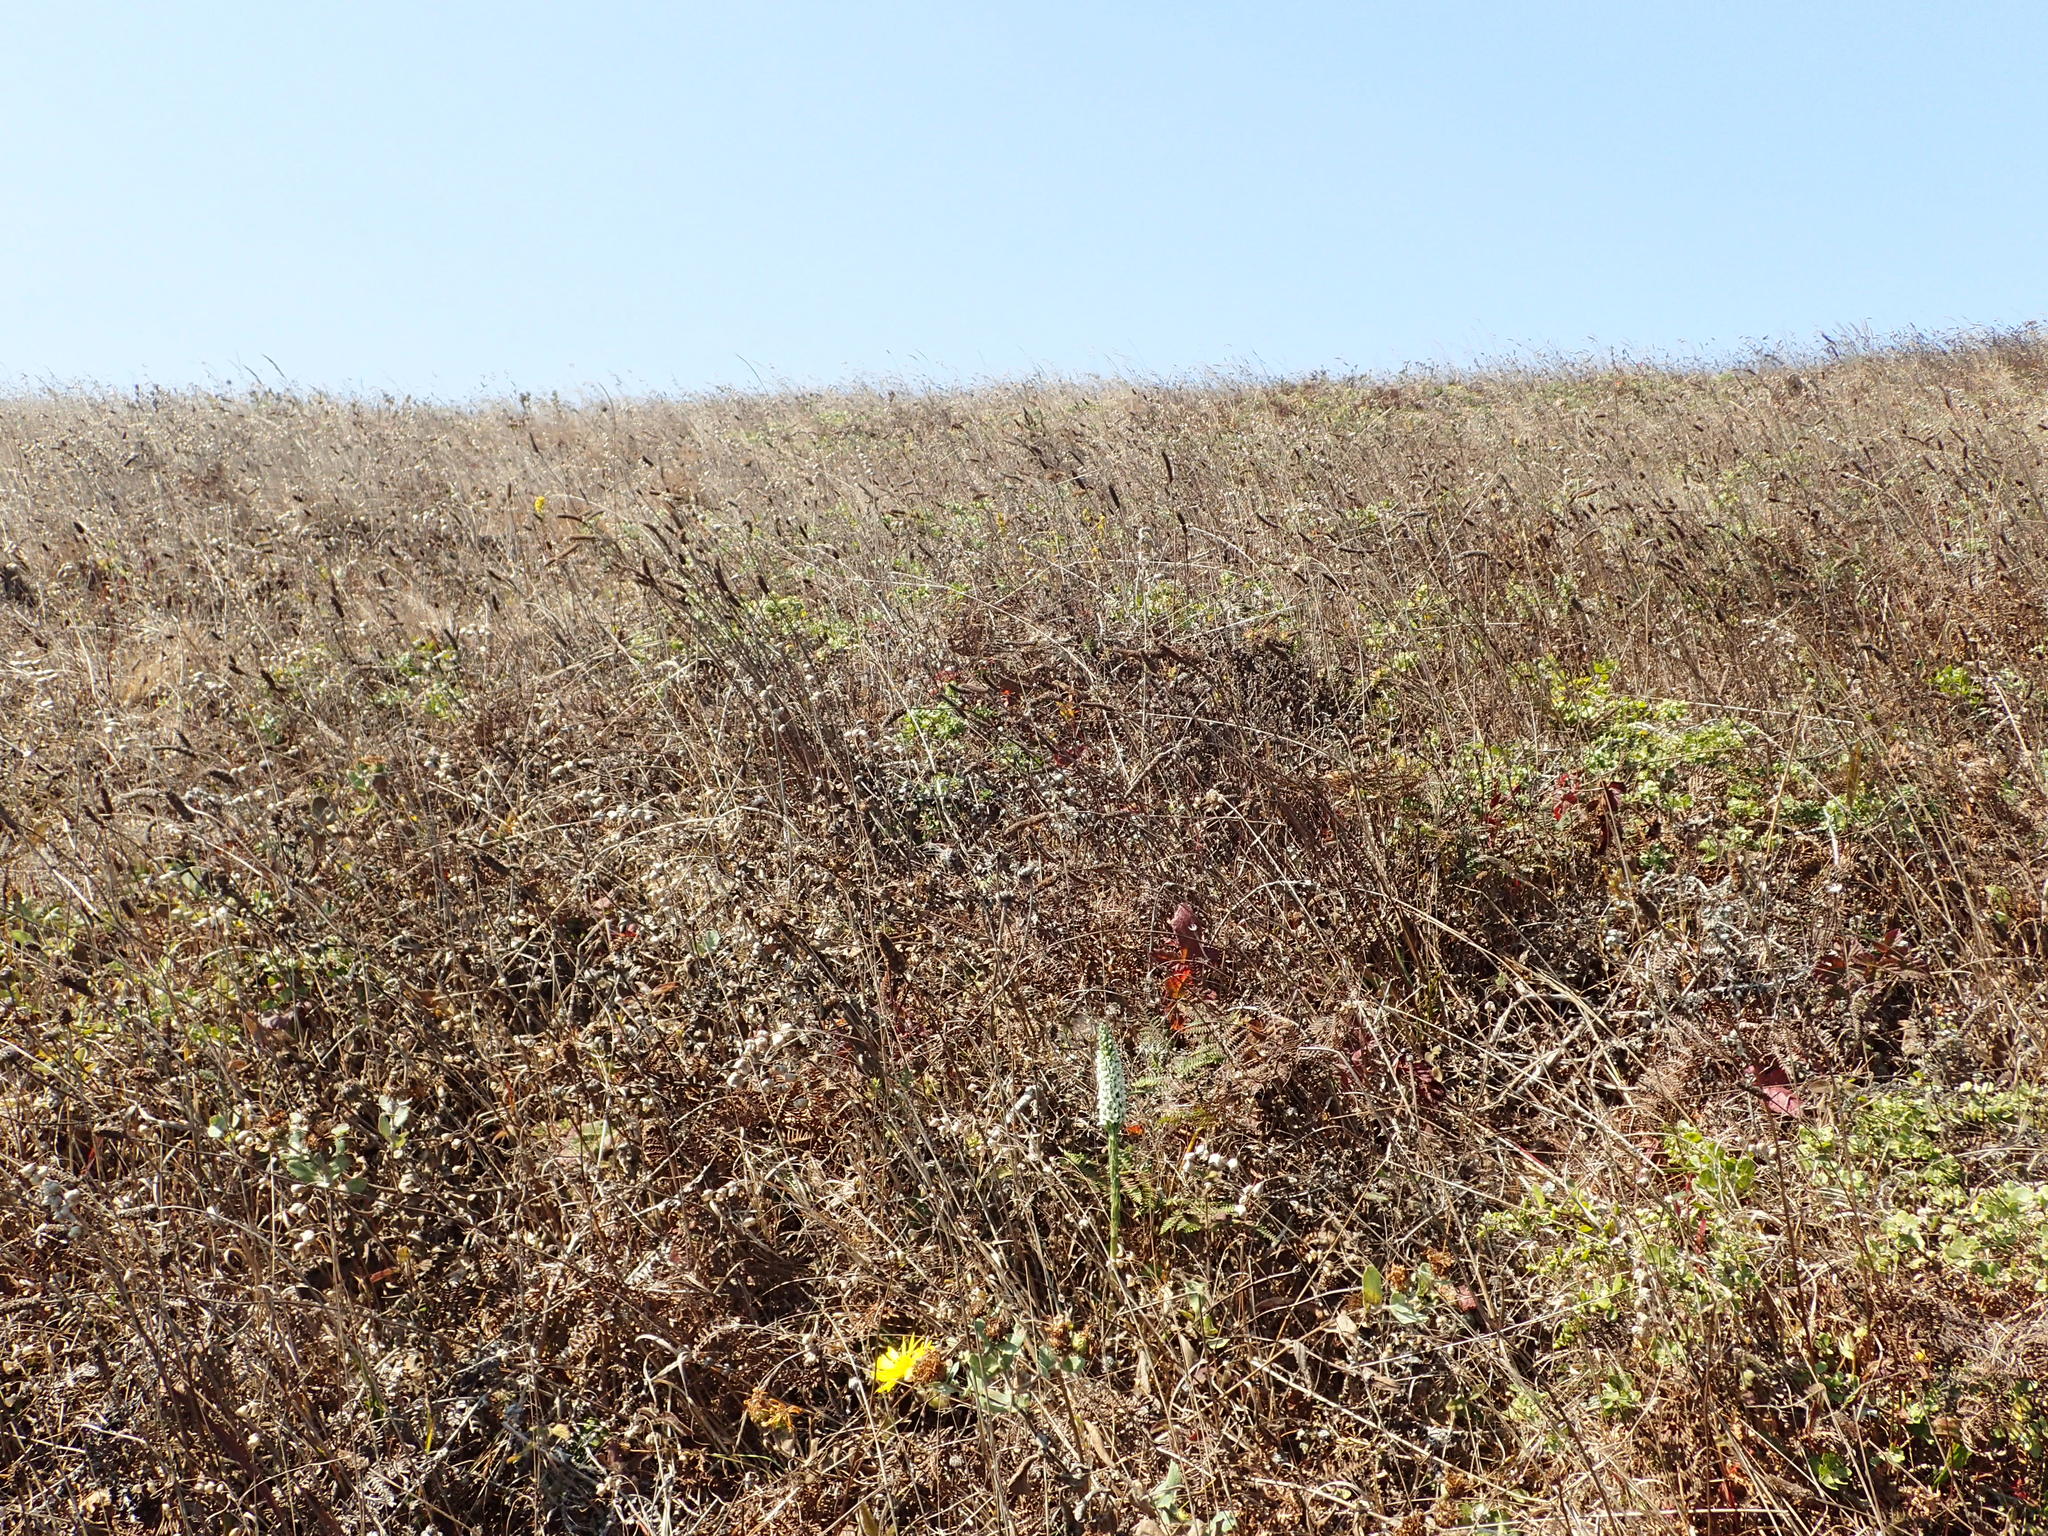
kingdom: Plantae
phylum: Tracheophyta
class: Liliopsida
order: Asparagales
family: Orchidaceae
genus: Platanthera
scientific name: Platanthera elegans
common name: Coast piperia
